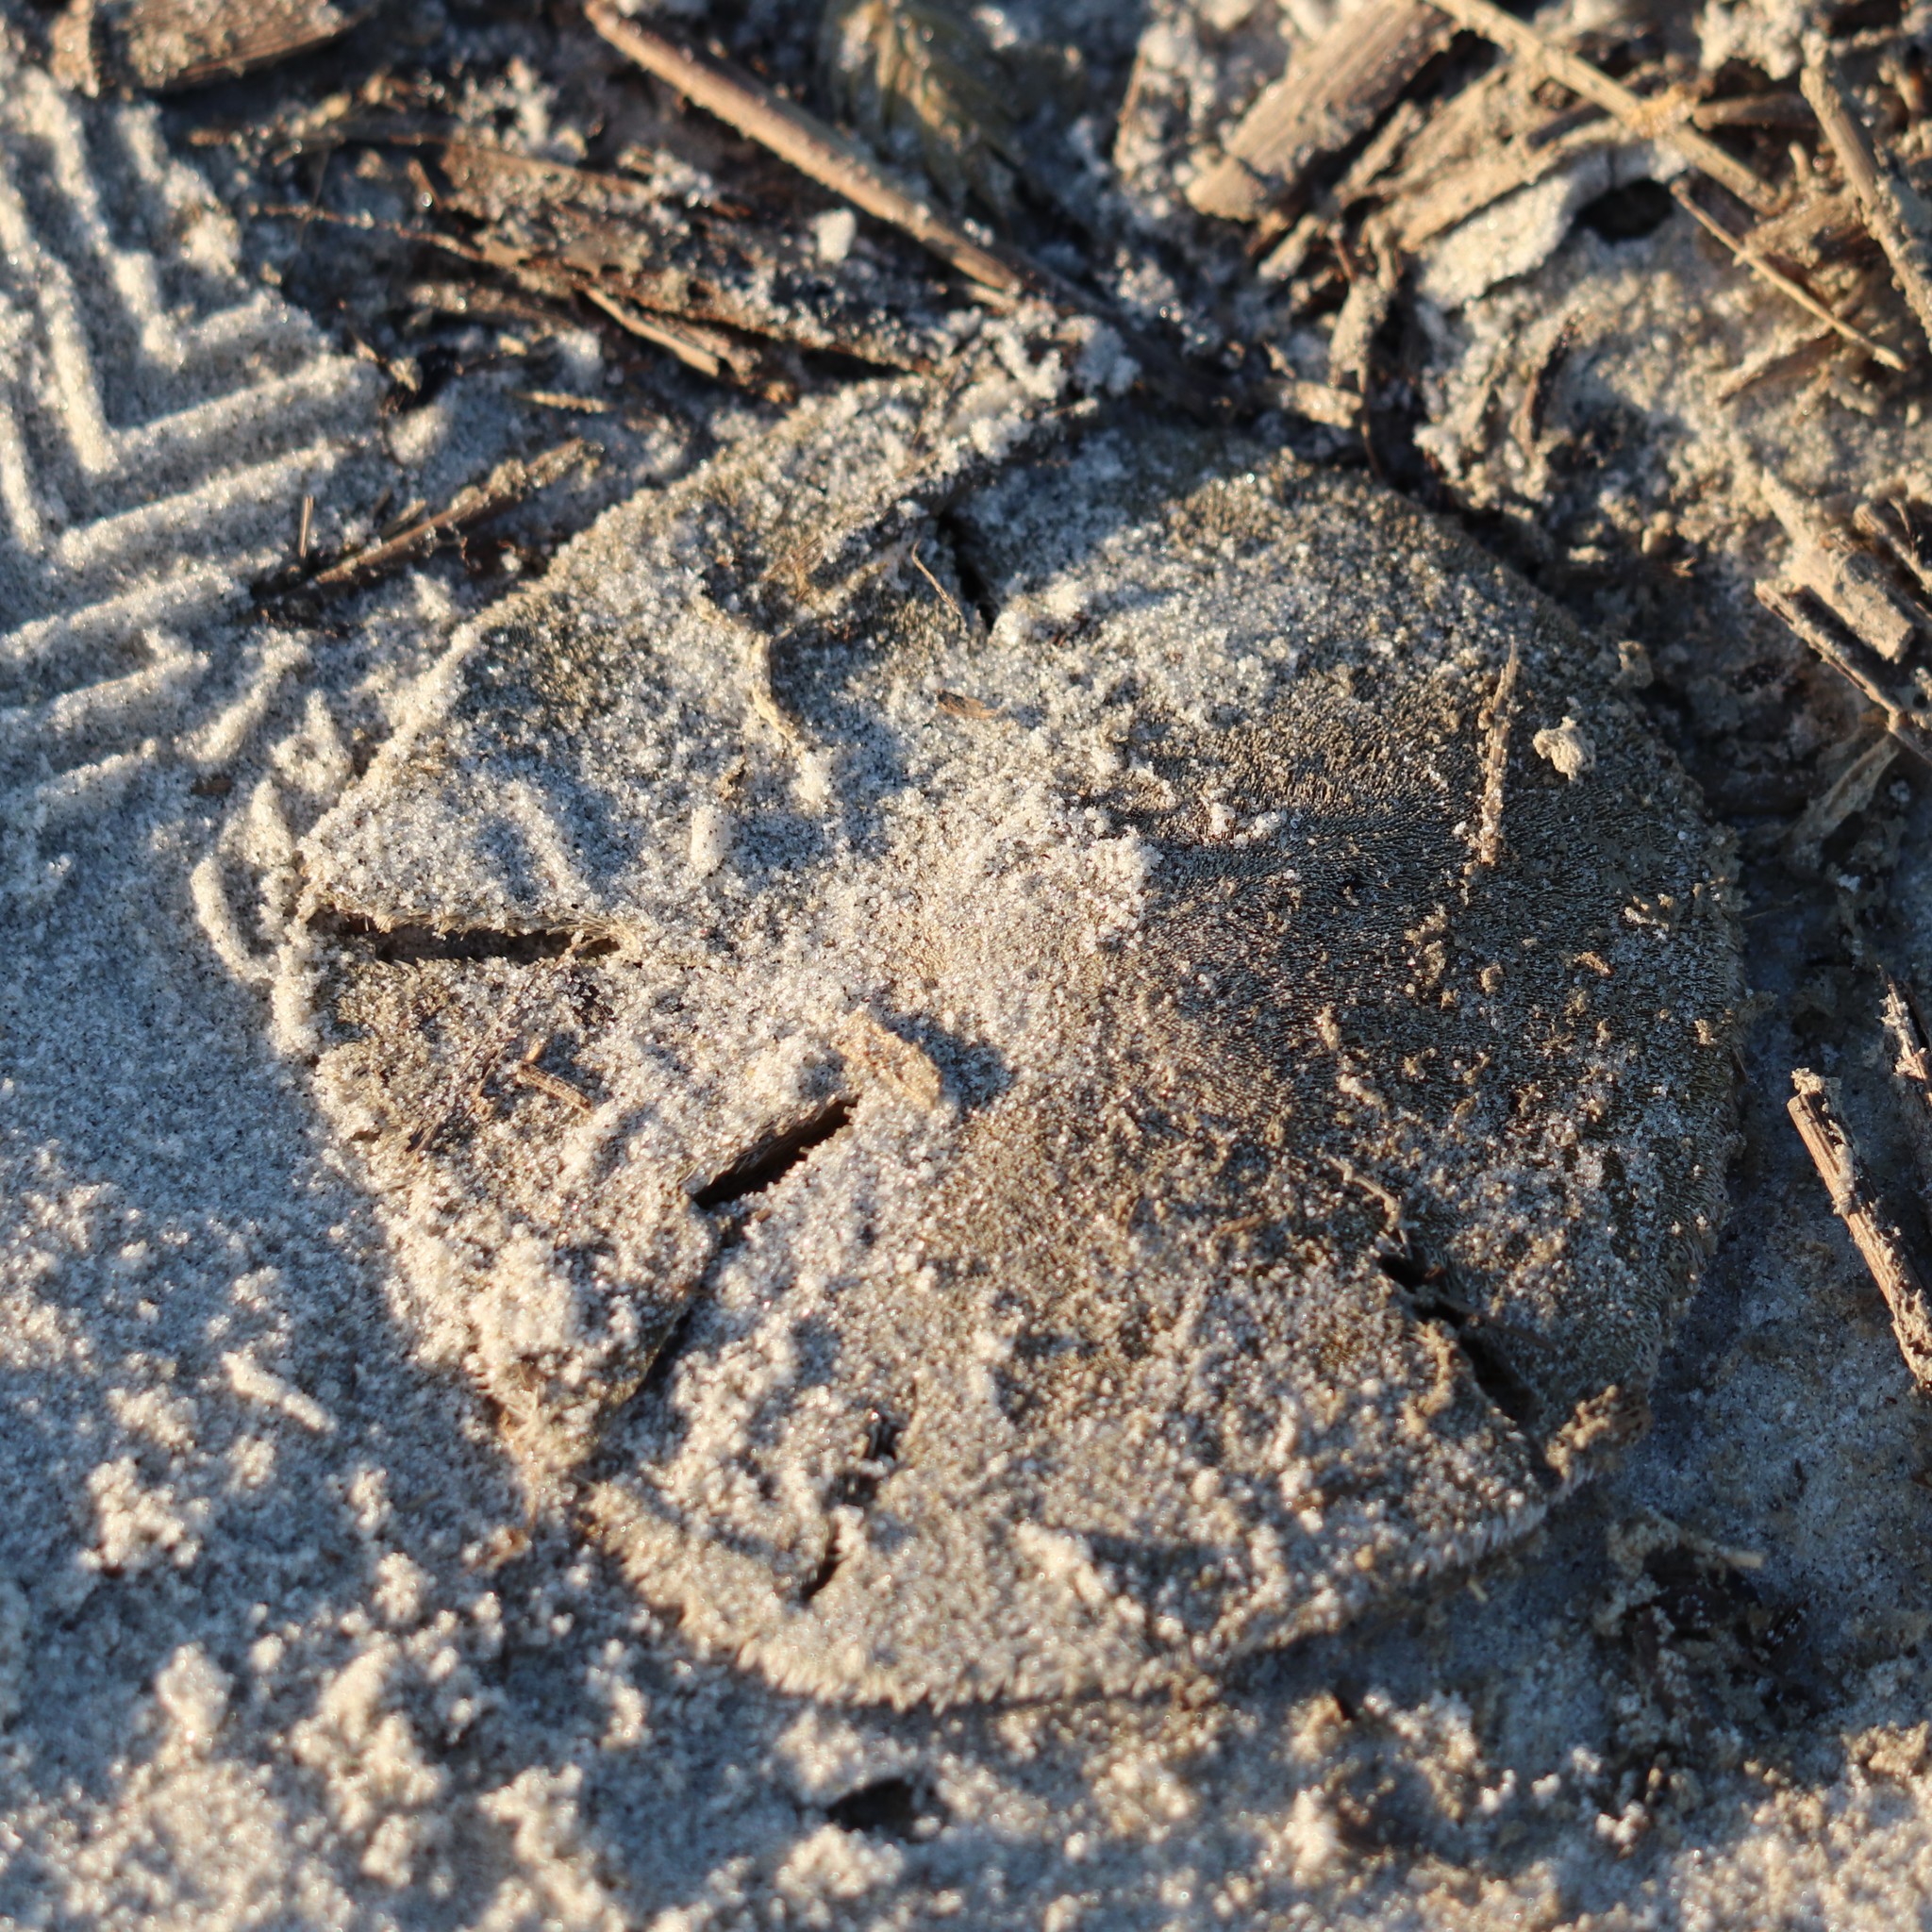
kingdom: Animalia
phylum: Echinodermata
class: Echinoidea
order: Echinolampadacea
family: Mellitidae
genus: Mellita
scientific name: Mellita isometra
